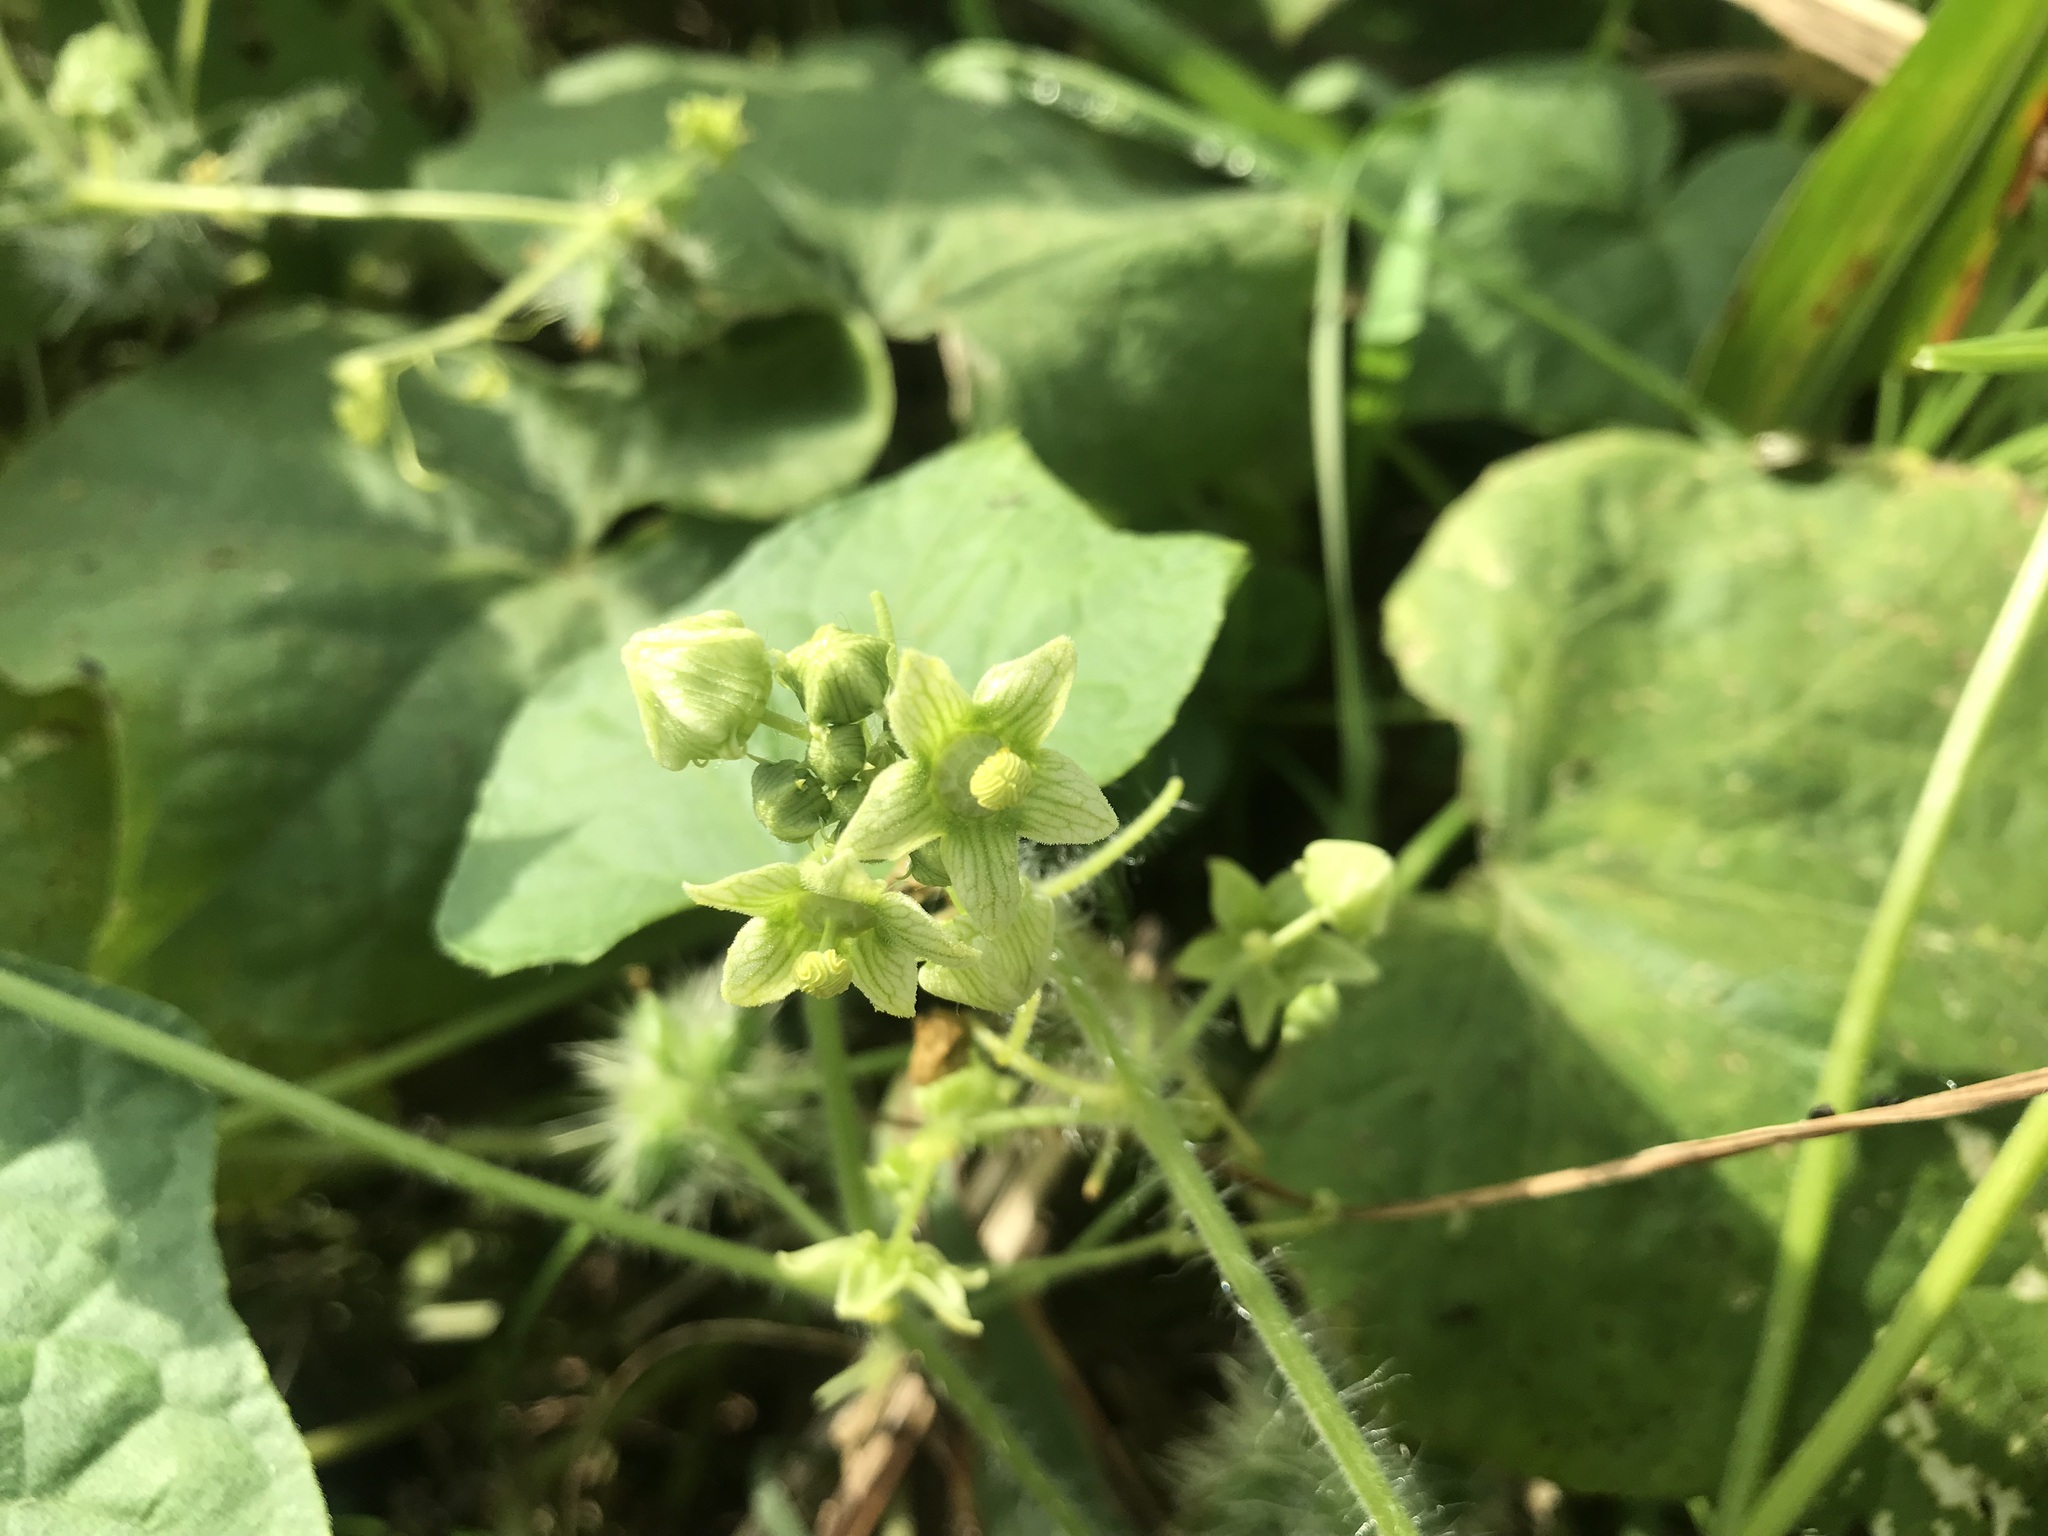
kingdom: Plantae
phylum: Tracheophyta
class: Magnoliopsida
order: Cucurbitales
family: Cucurbitaceae
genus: Sicyos
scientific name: Sicyos angulatus
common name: Angled burr cucumber
